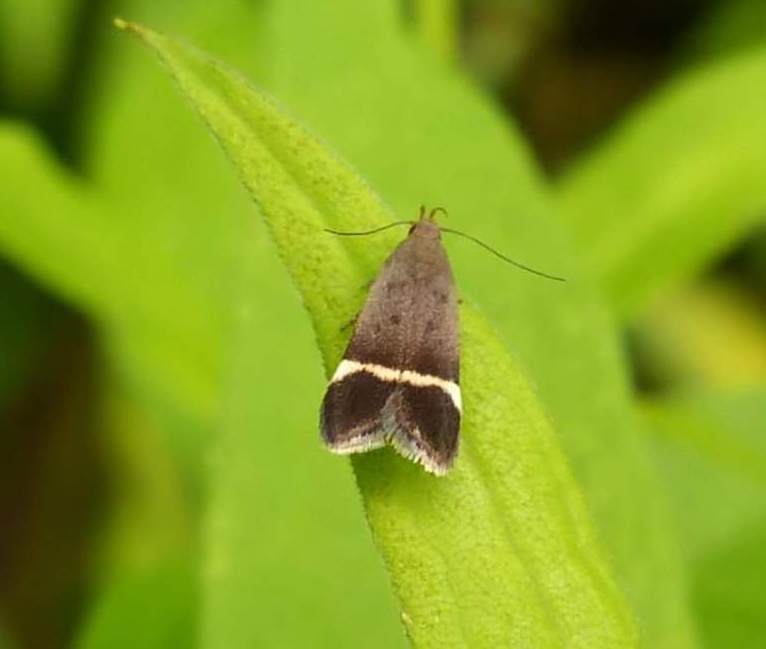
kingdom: Animalia
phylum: Arthropoda
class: Insecta
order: Lepidoptera
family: Gelechiidae
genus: Anacampsis
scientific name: Anacampsis agrimoniella
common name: Agrimony anacampsis moth
